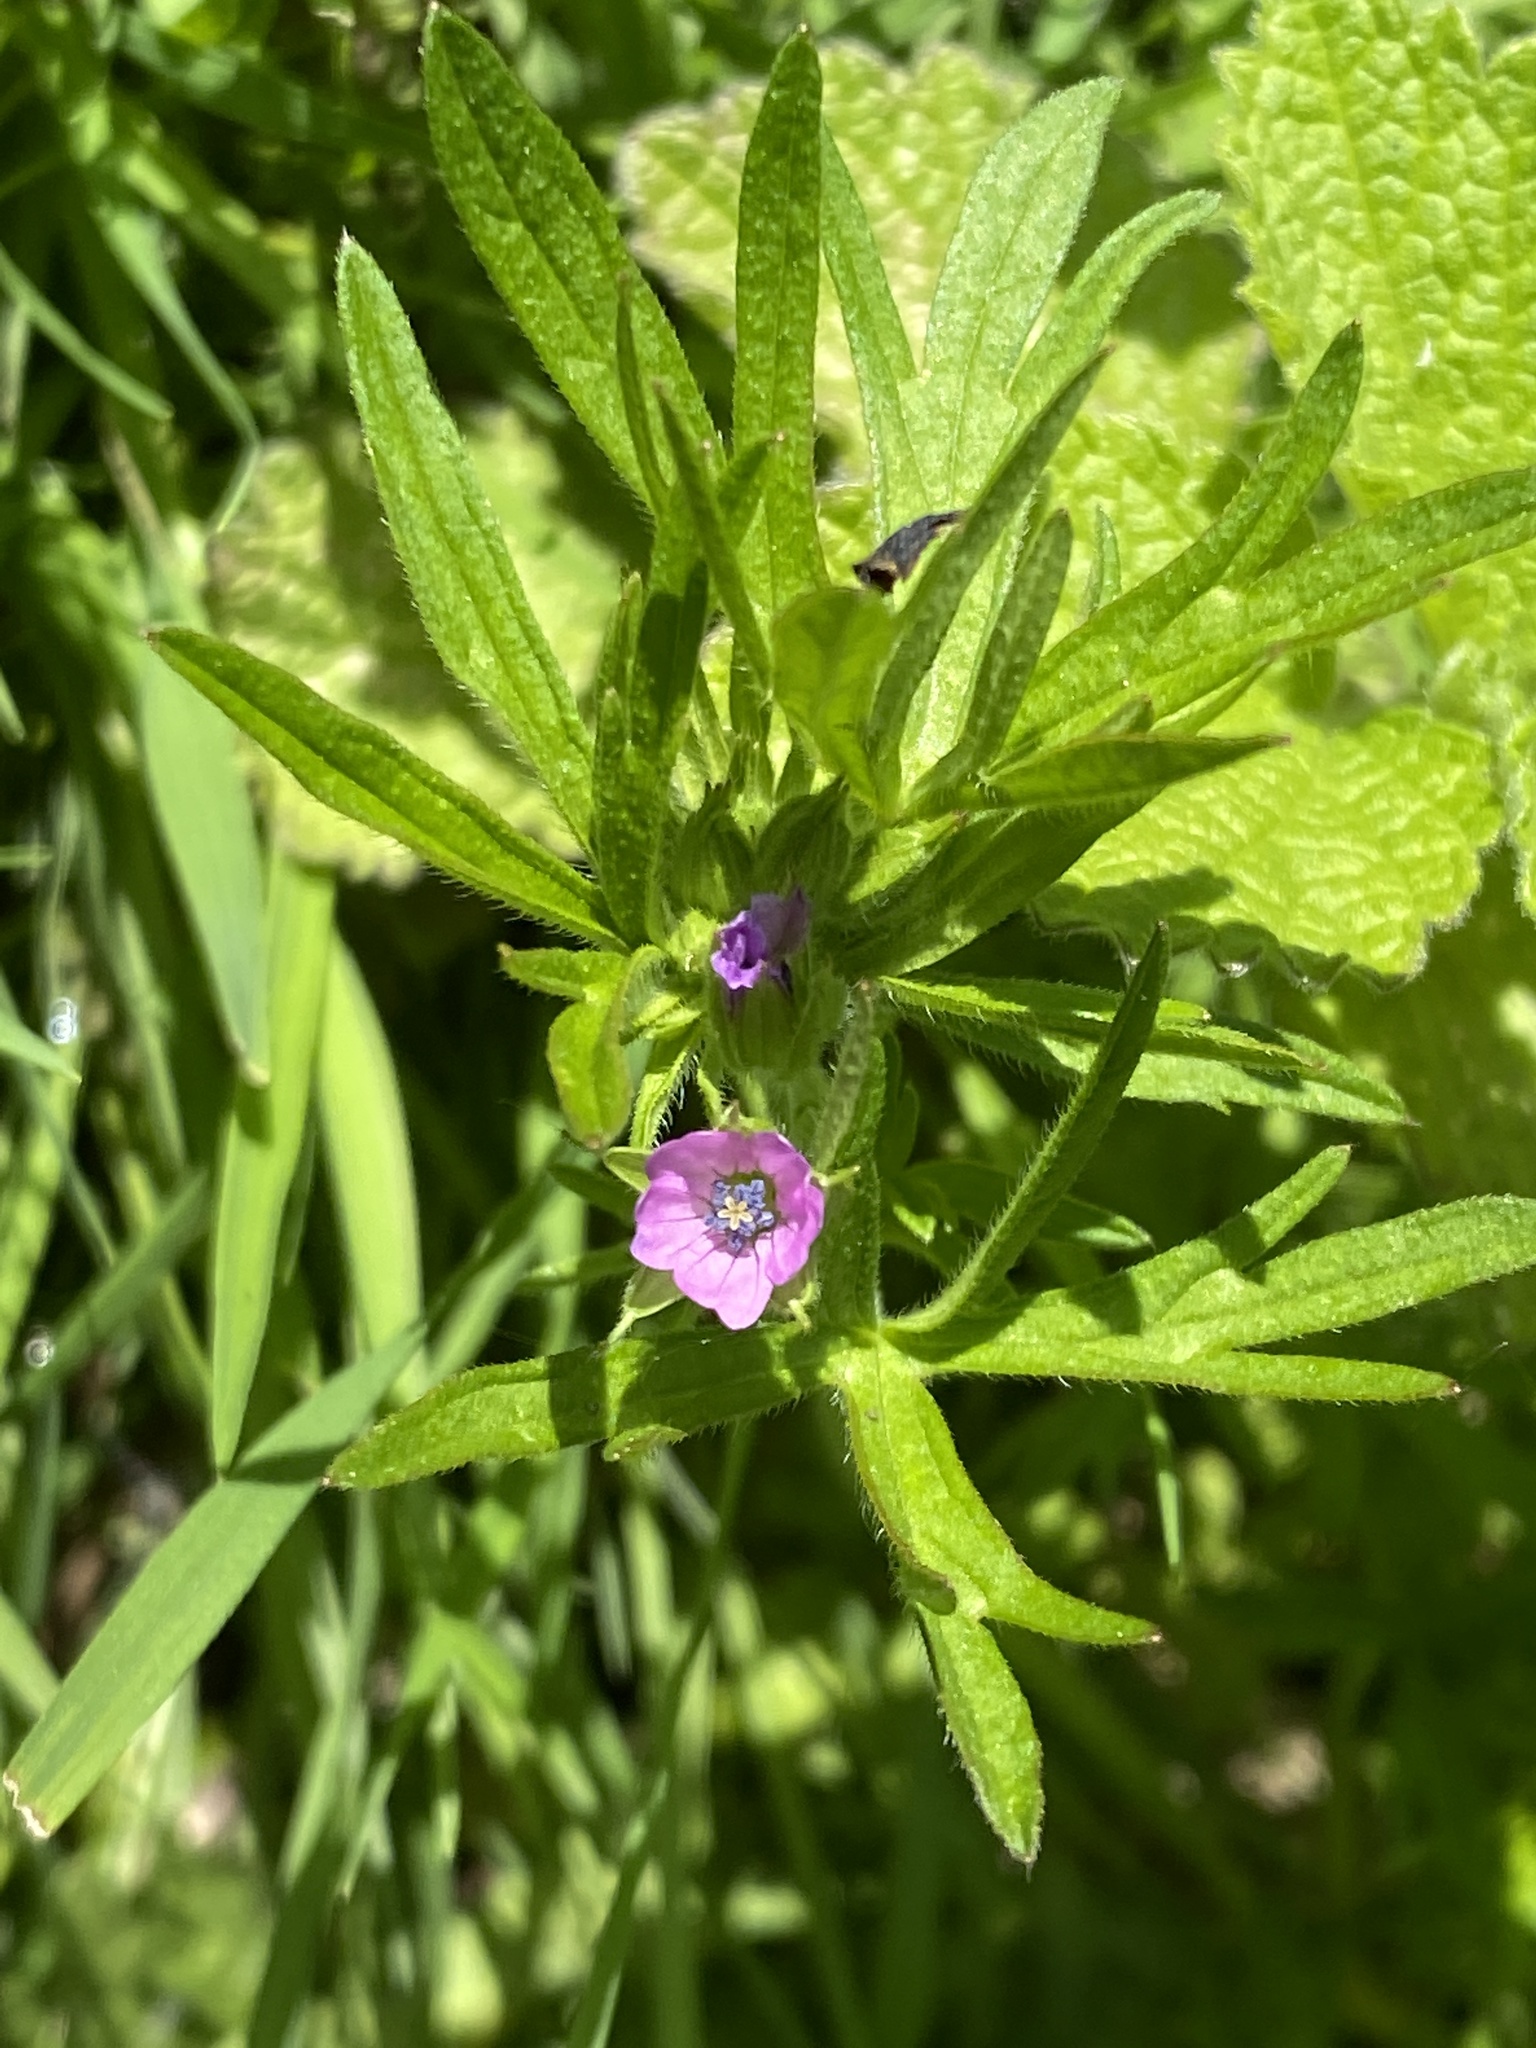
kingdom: Plantae
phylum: Tracheophyta
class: Magnoliopsida
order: Geraniales
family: Geraniaceae
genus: Geranium
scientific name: Geranium dissectum
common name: Cut-leaved crane's-bill
